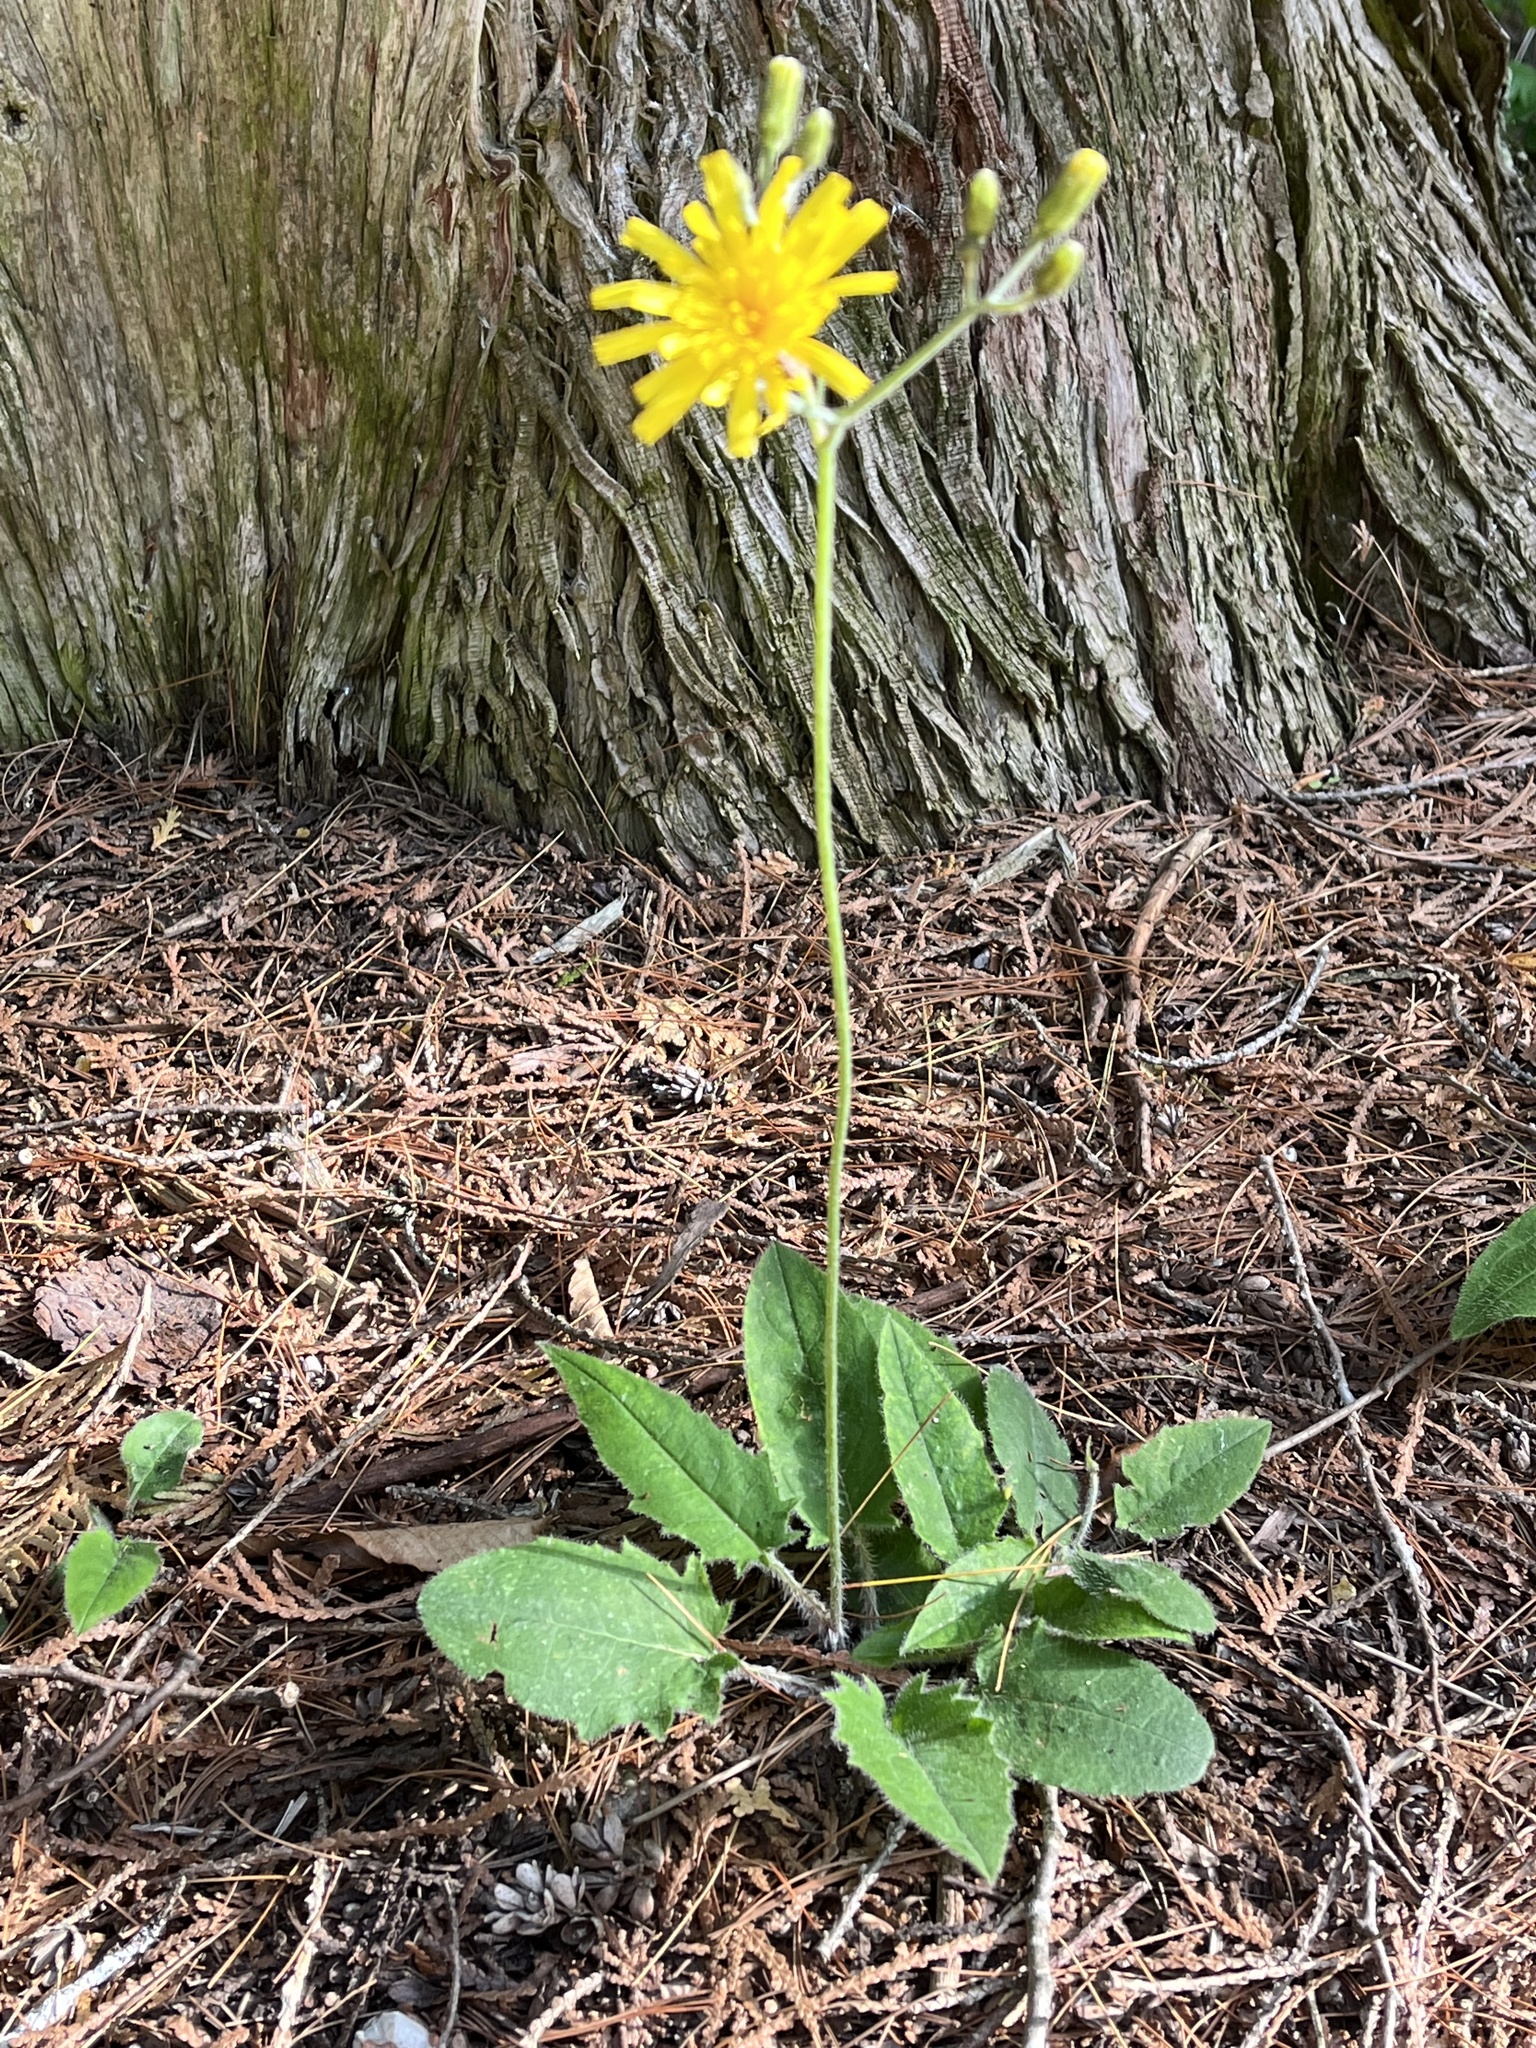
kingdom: Plantae
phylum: Tracheophyta
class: Magnoliopsida
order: Asterales
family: Asteraceae
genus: Hieracium
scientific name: Hieracium murorum
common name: Wall hawkweed
